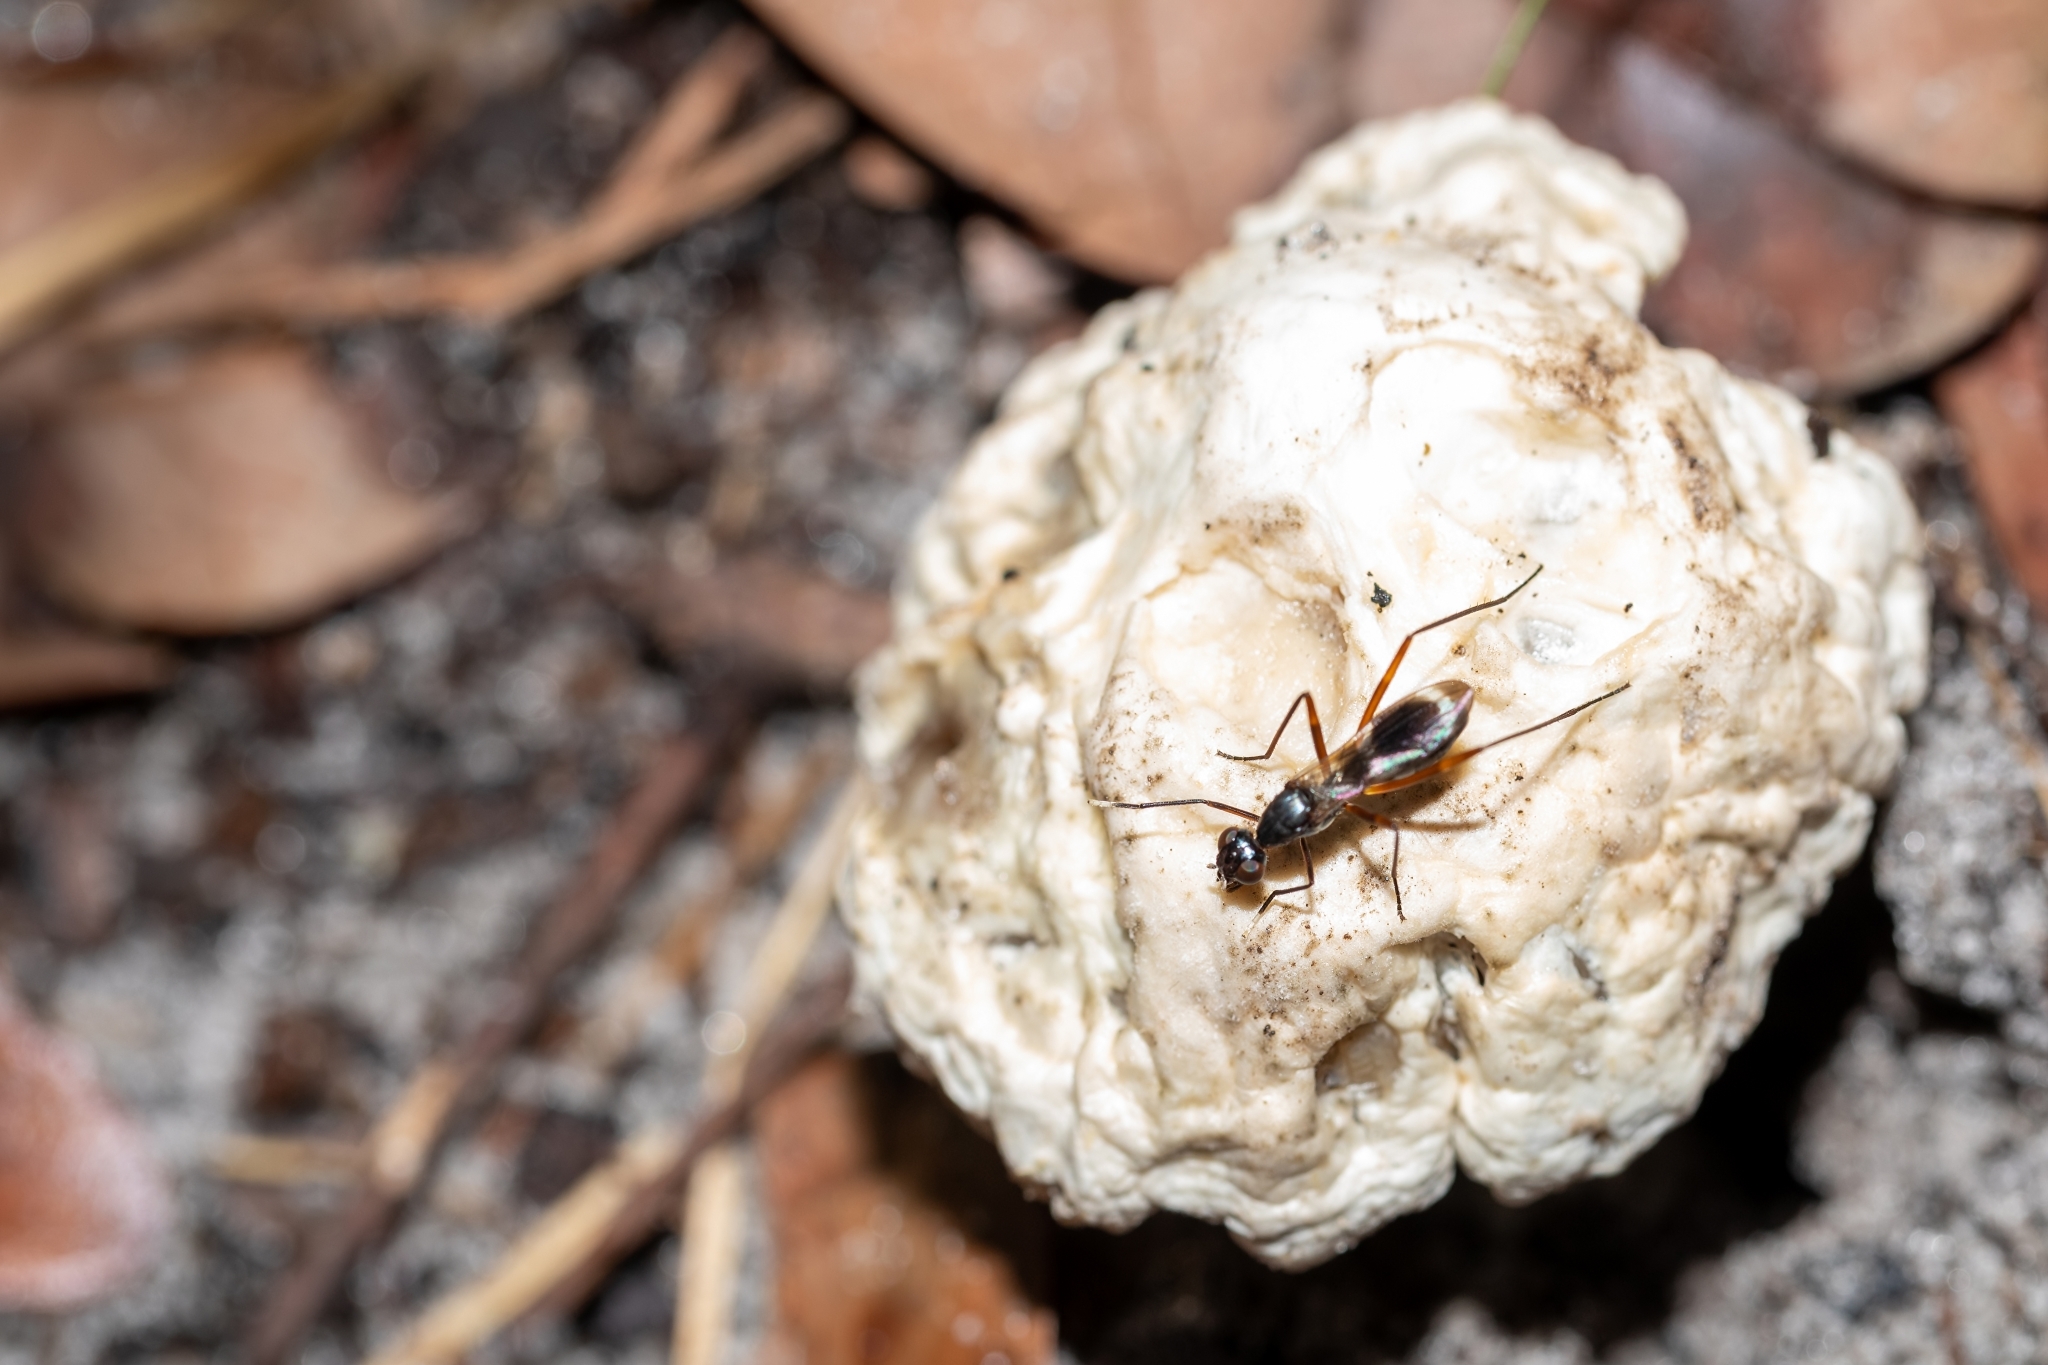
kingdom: Animalia
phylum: Arthropoda
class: Insecta
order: Diptera
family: Micropezidae
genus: Taeniaptera
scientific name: Taeniaptera trivittata
